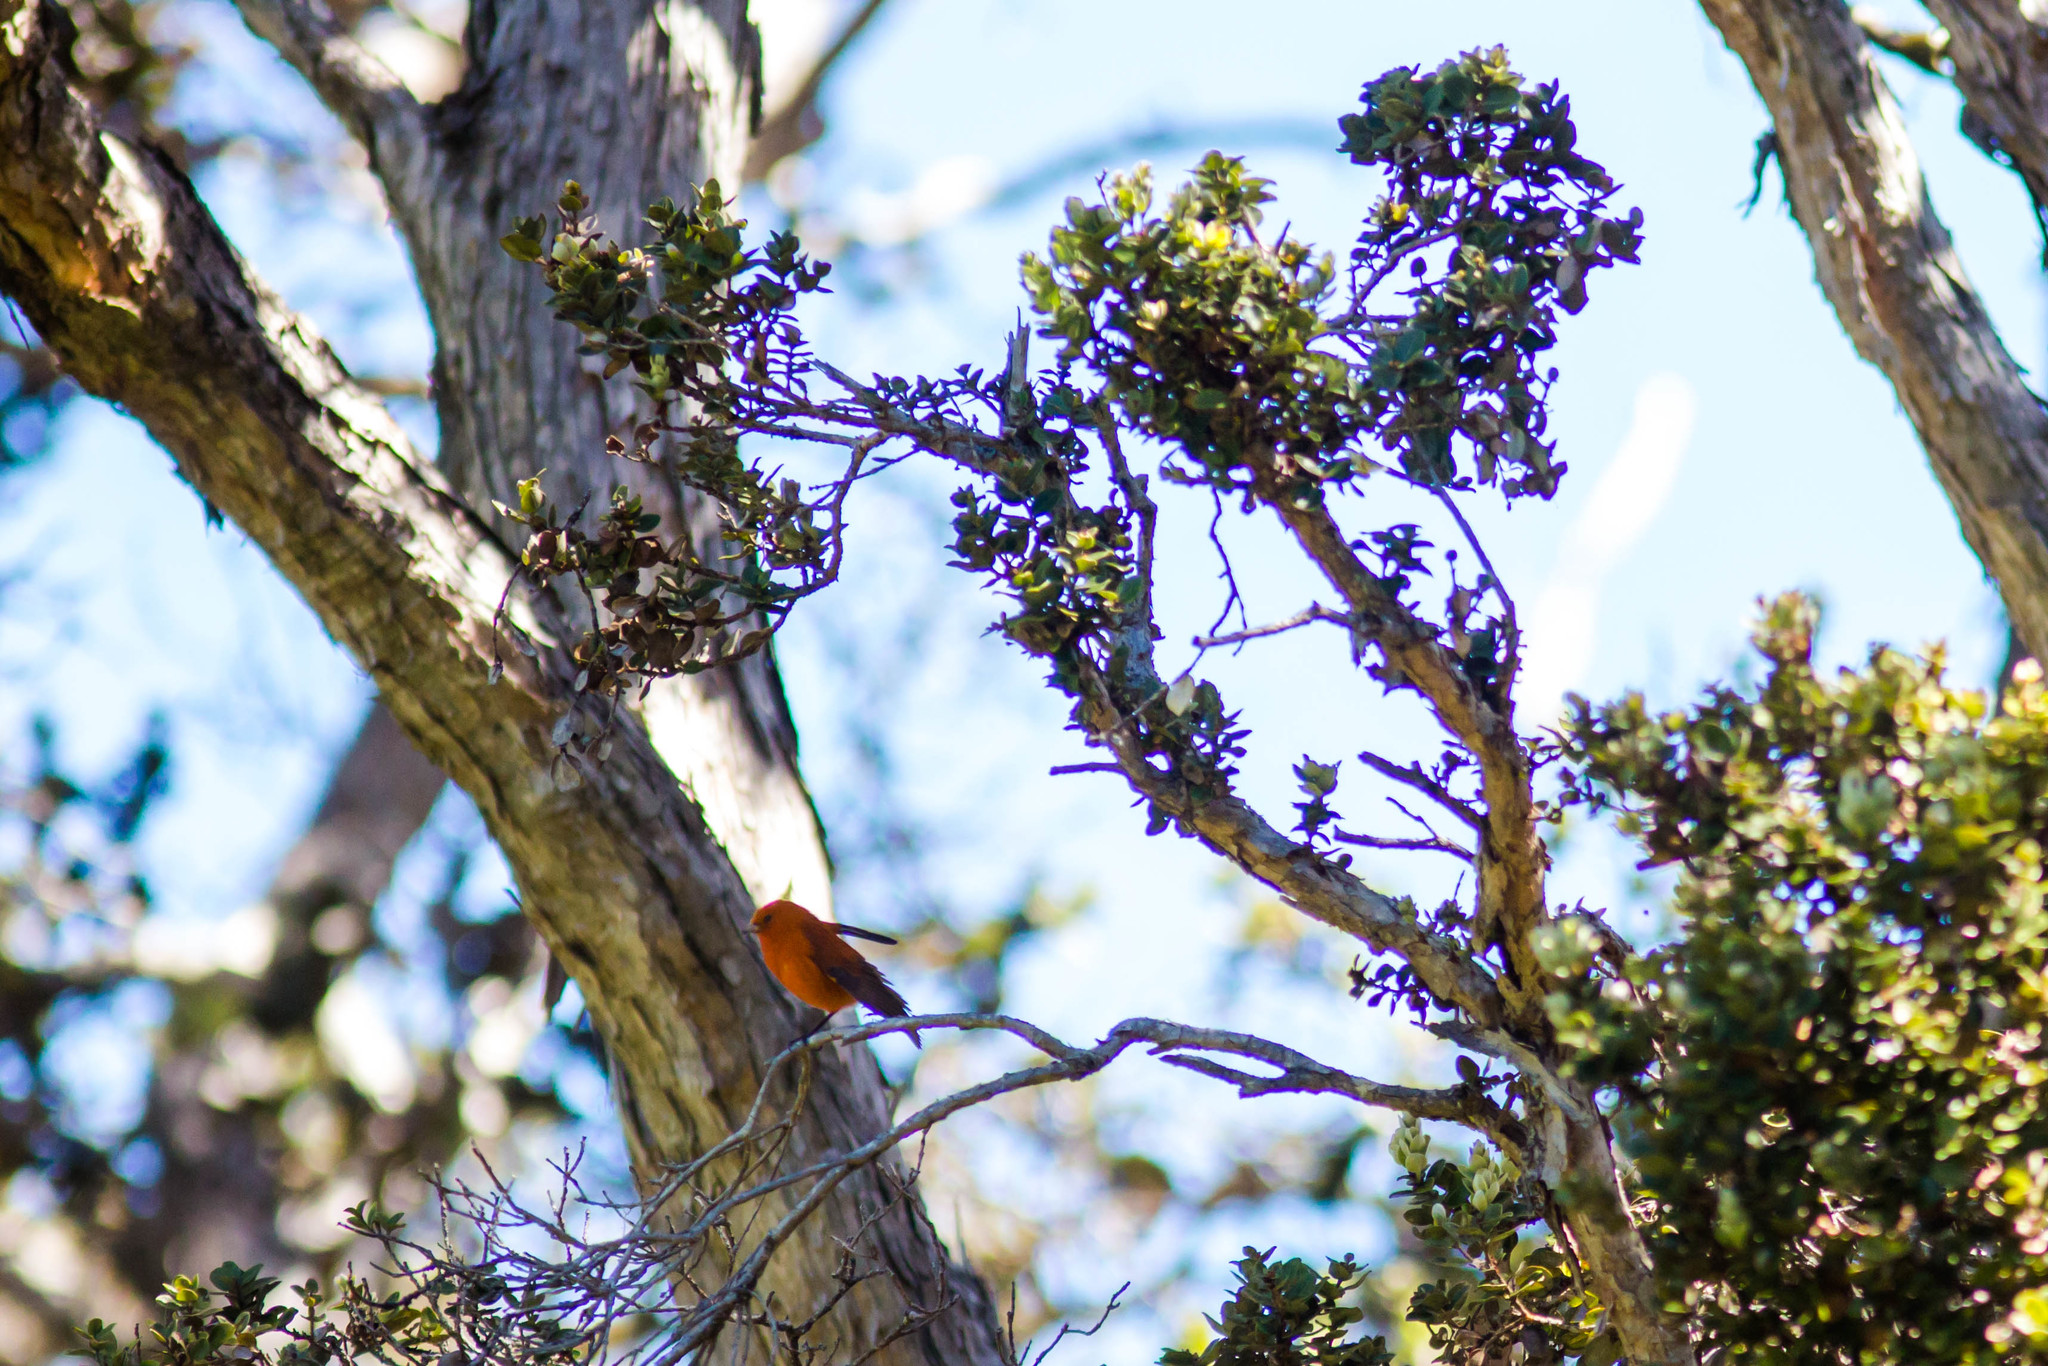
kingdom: Animalia
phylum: Chordata
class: Aves
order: Passeriformes
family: Fringillidae
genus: Loxops
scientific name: Loxops coccineus
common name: Hawaii akepa
